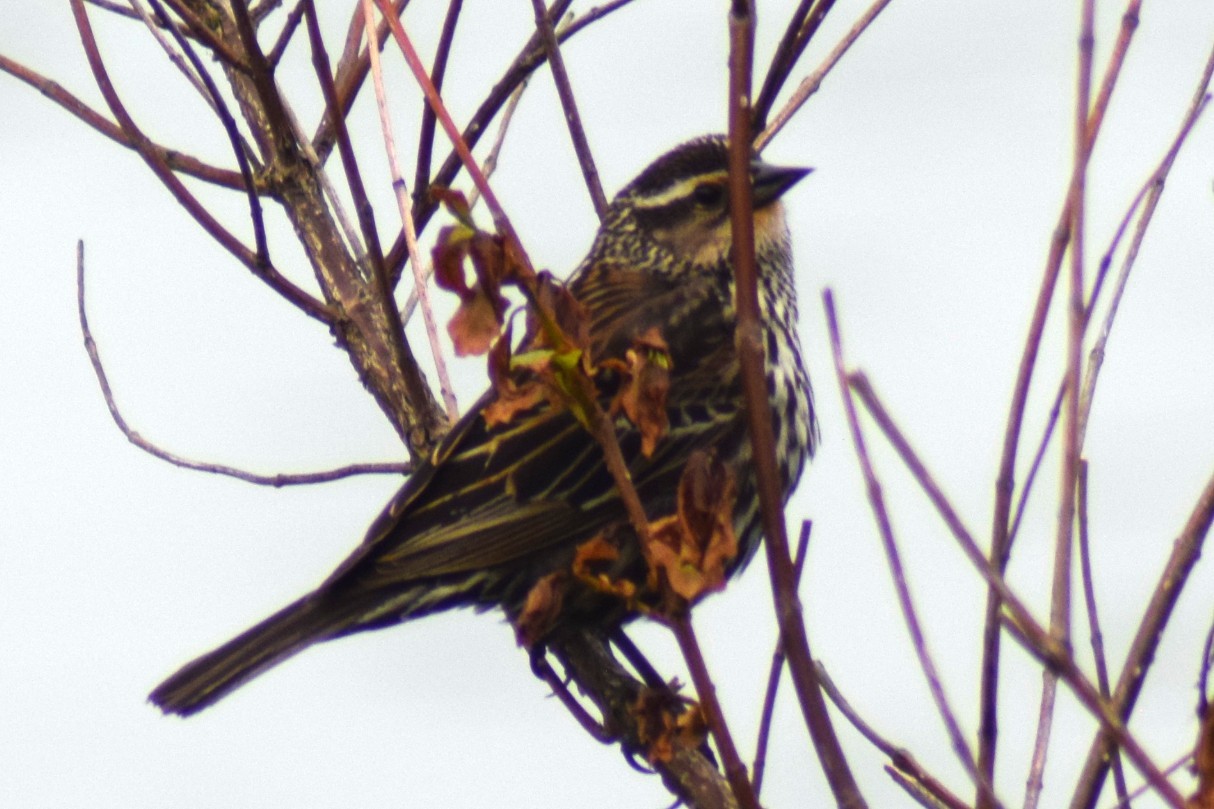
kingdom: Animalia
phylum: Chordata
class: Aves
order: Passeriformes
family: Icteridae
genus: Agelaius
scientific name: Agelaius phoeniceus
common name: Red-winged blackbird
